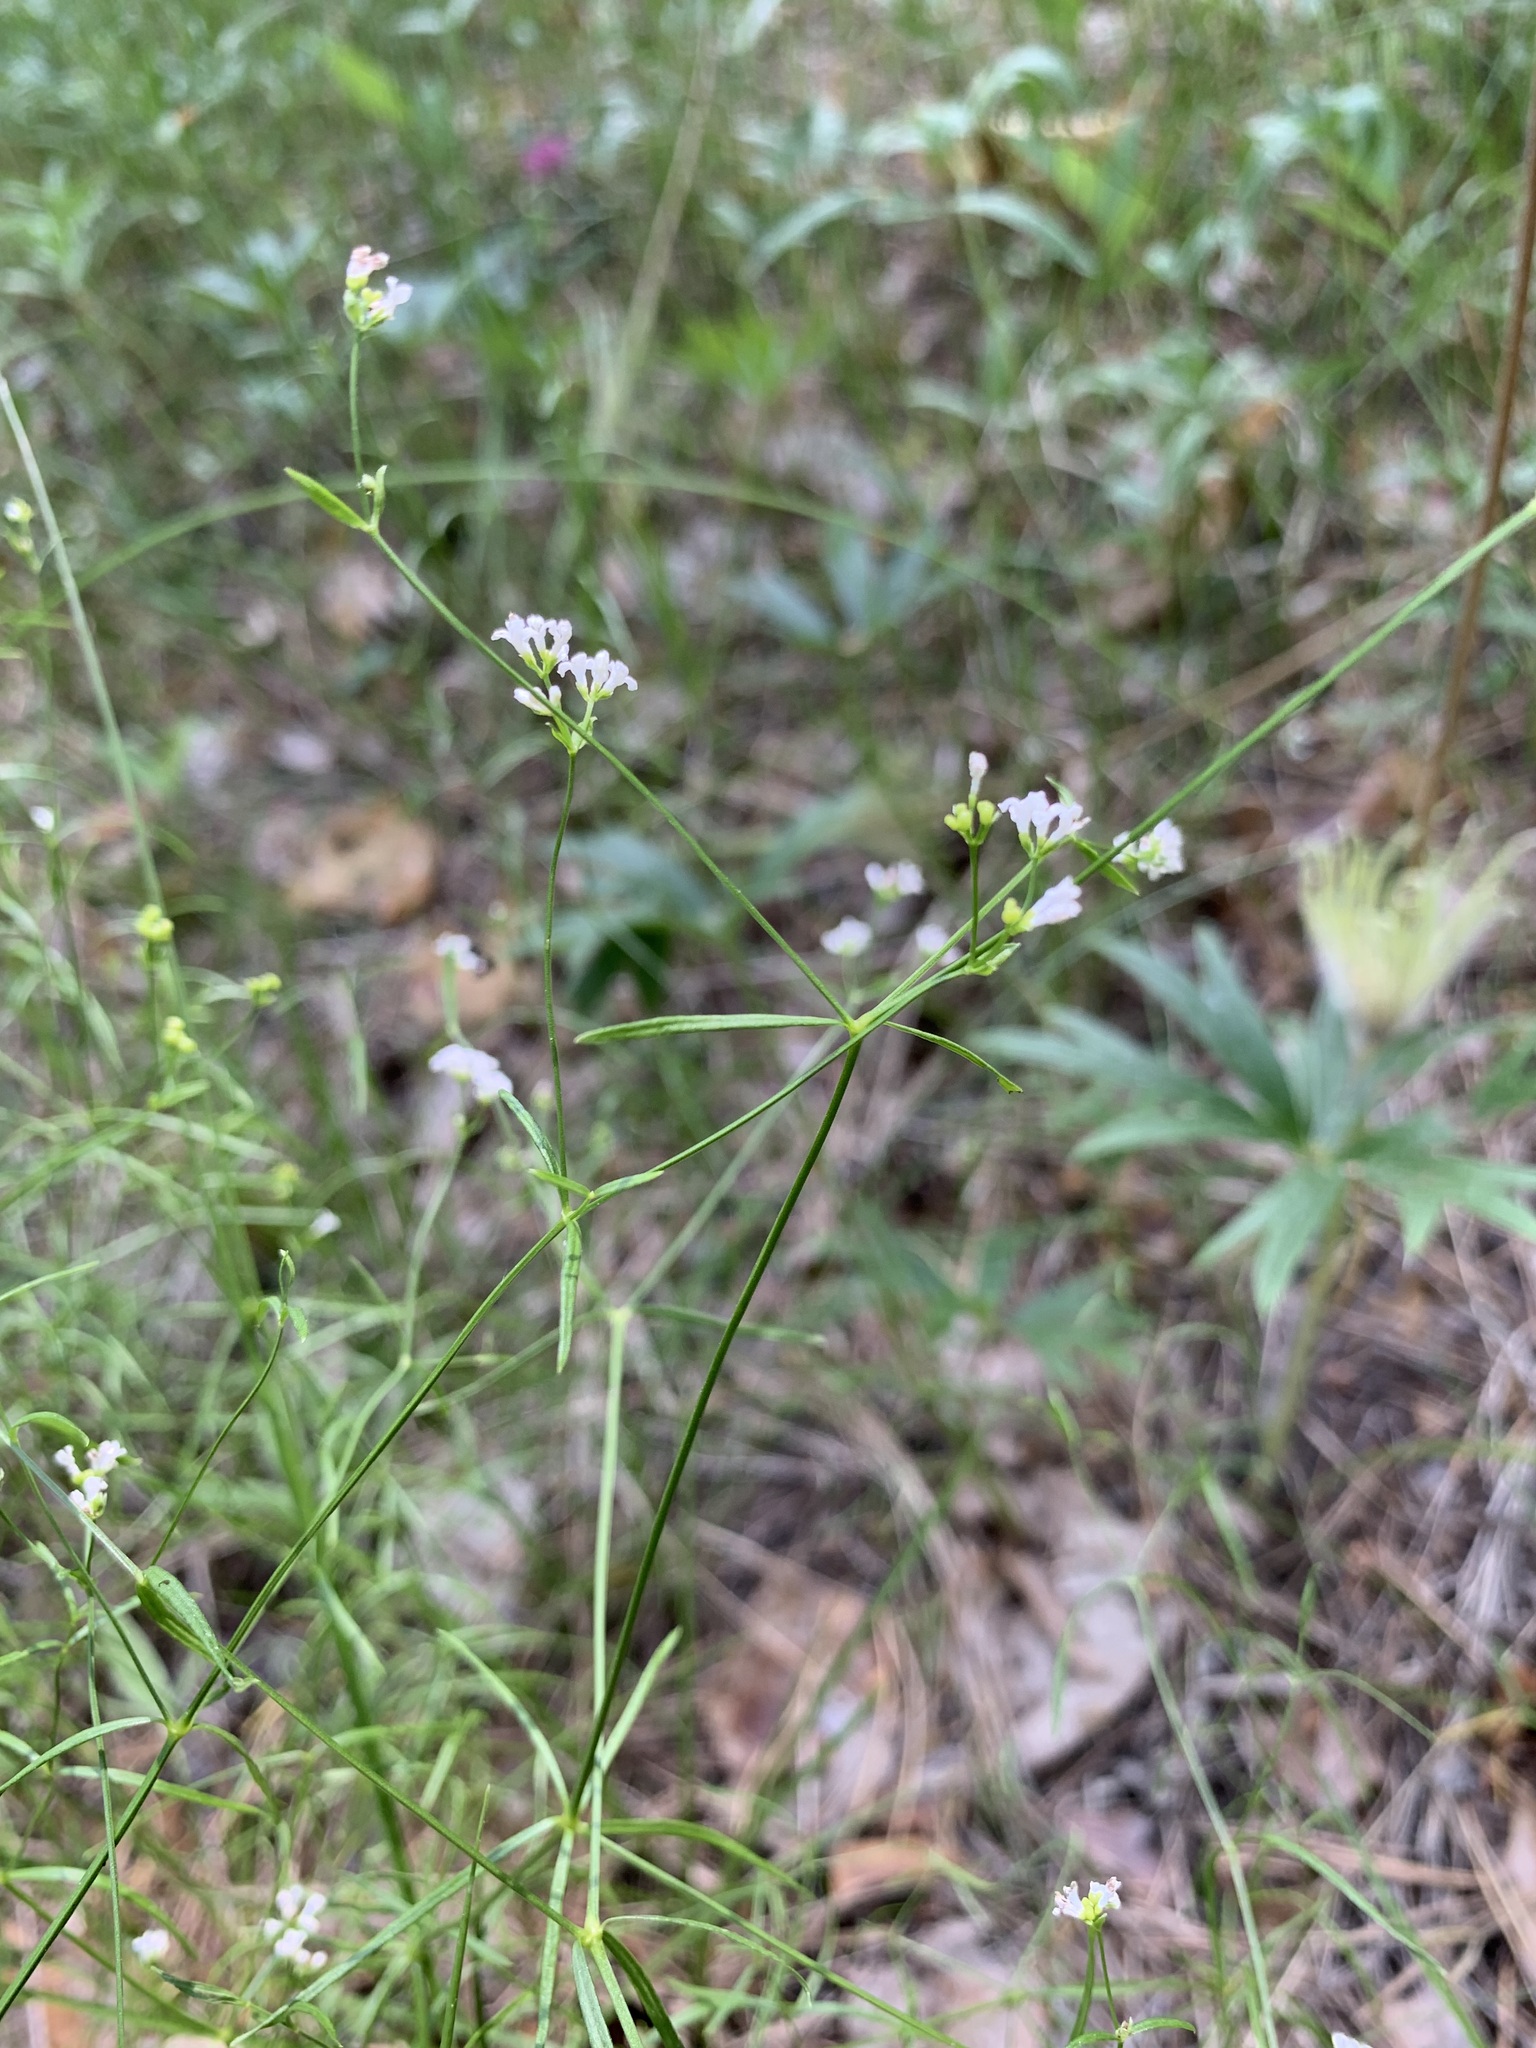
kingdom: Plantae
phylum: Tracheophyta
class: Magnoliopsida
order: Gentianales
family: Rubiaceae
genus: Asperula
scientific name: Asperula tinctoria
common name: Dyer's woodruff
